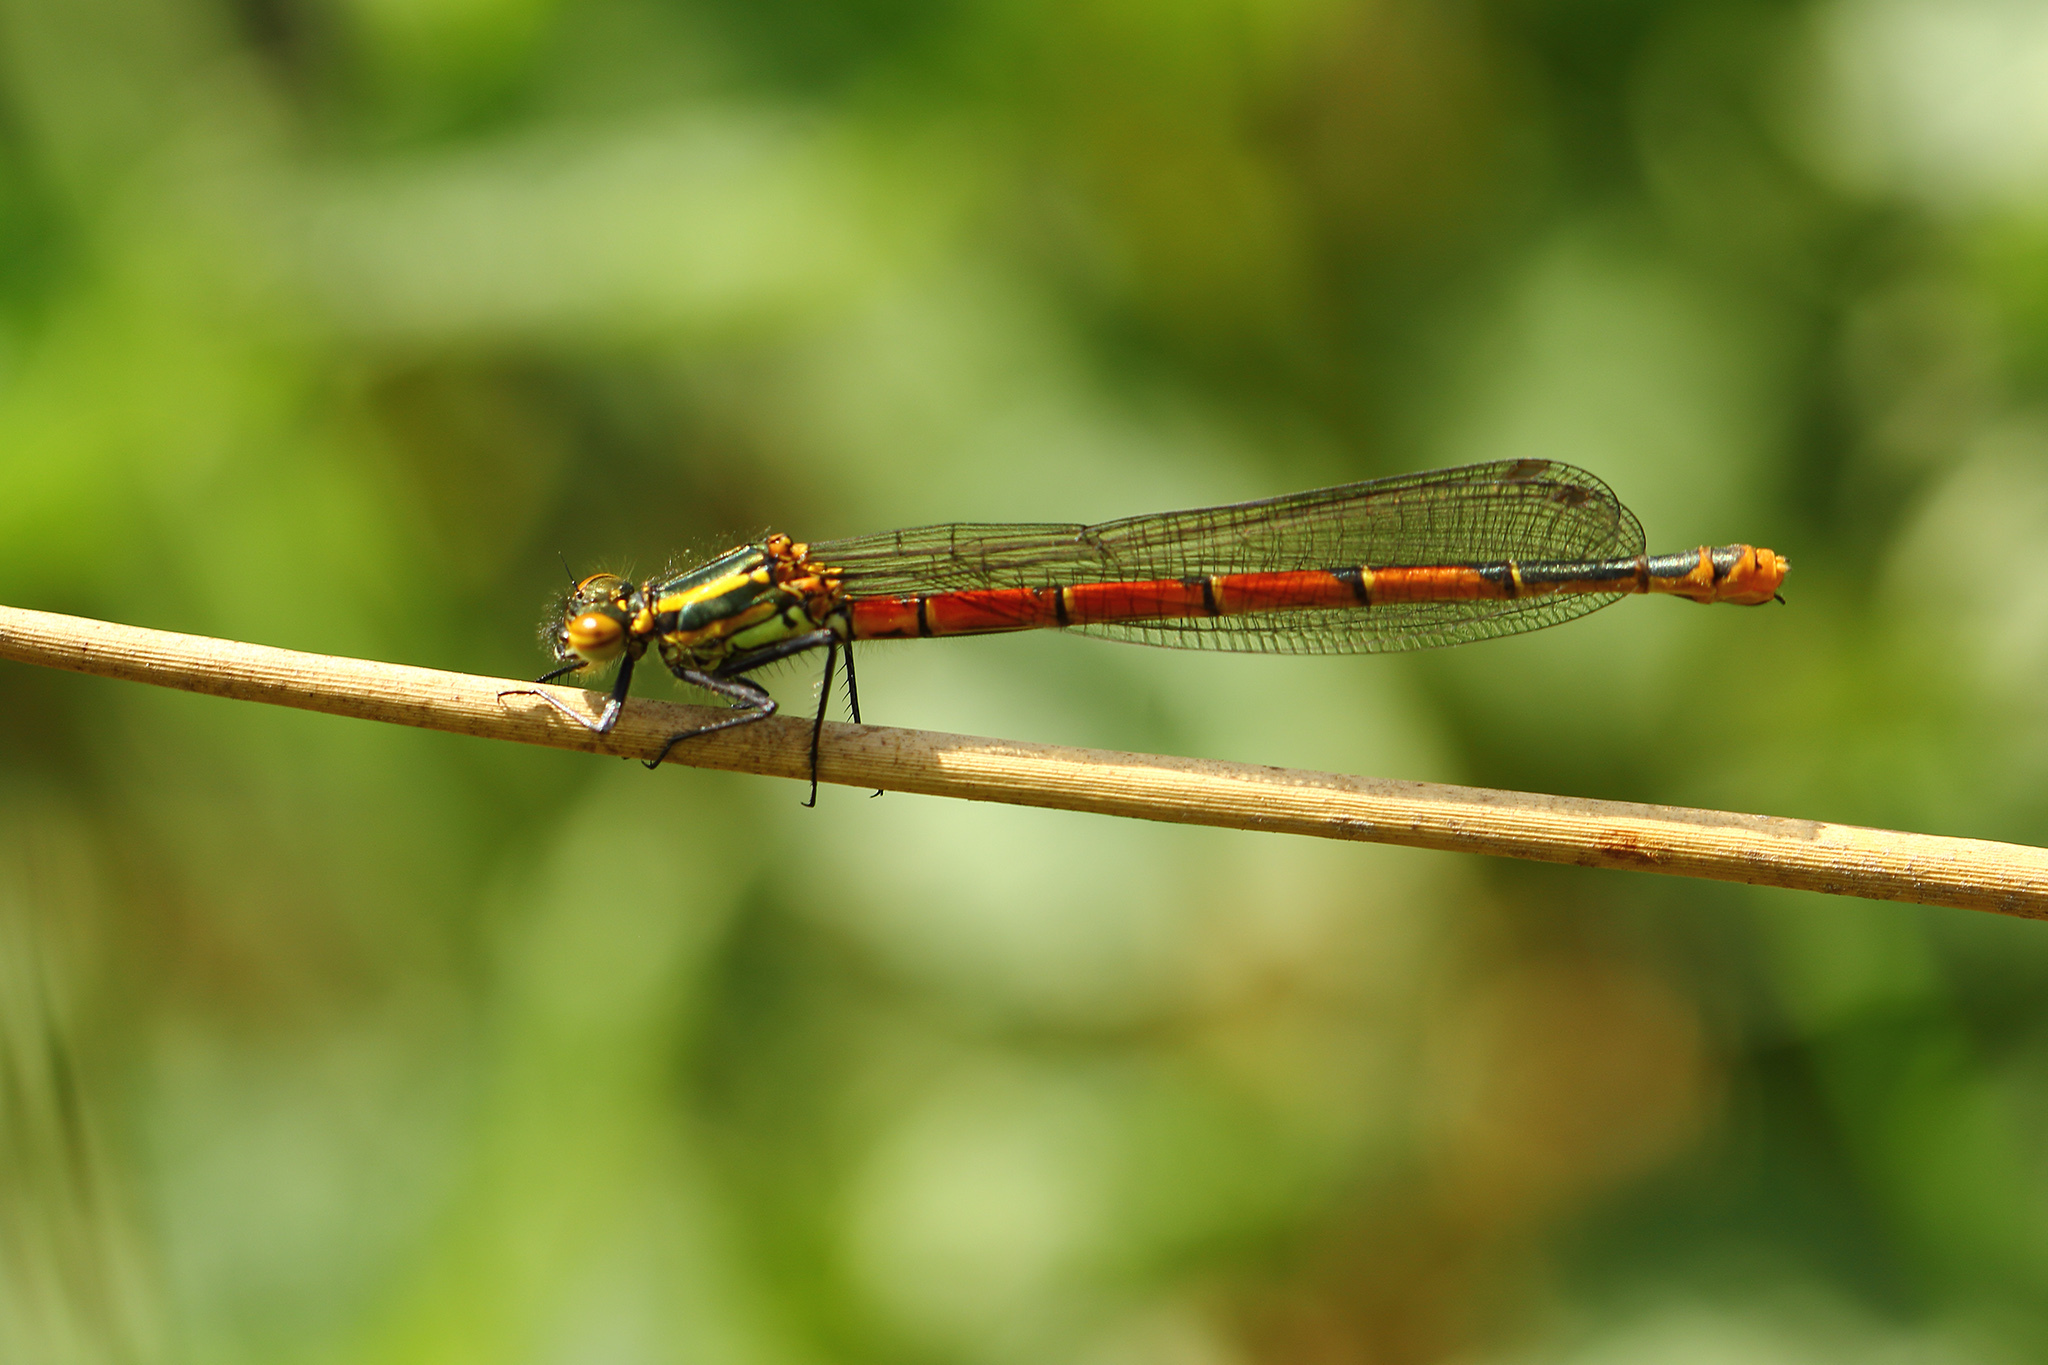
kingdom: Animalia
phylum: Arthropoda
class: Insecta
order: Odonata
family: Coenagrionidae
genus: Pyrrhosoma
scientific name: Pyrrhosoma nymphula
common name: Large red damsel
